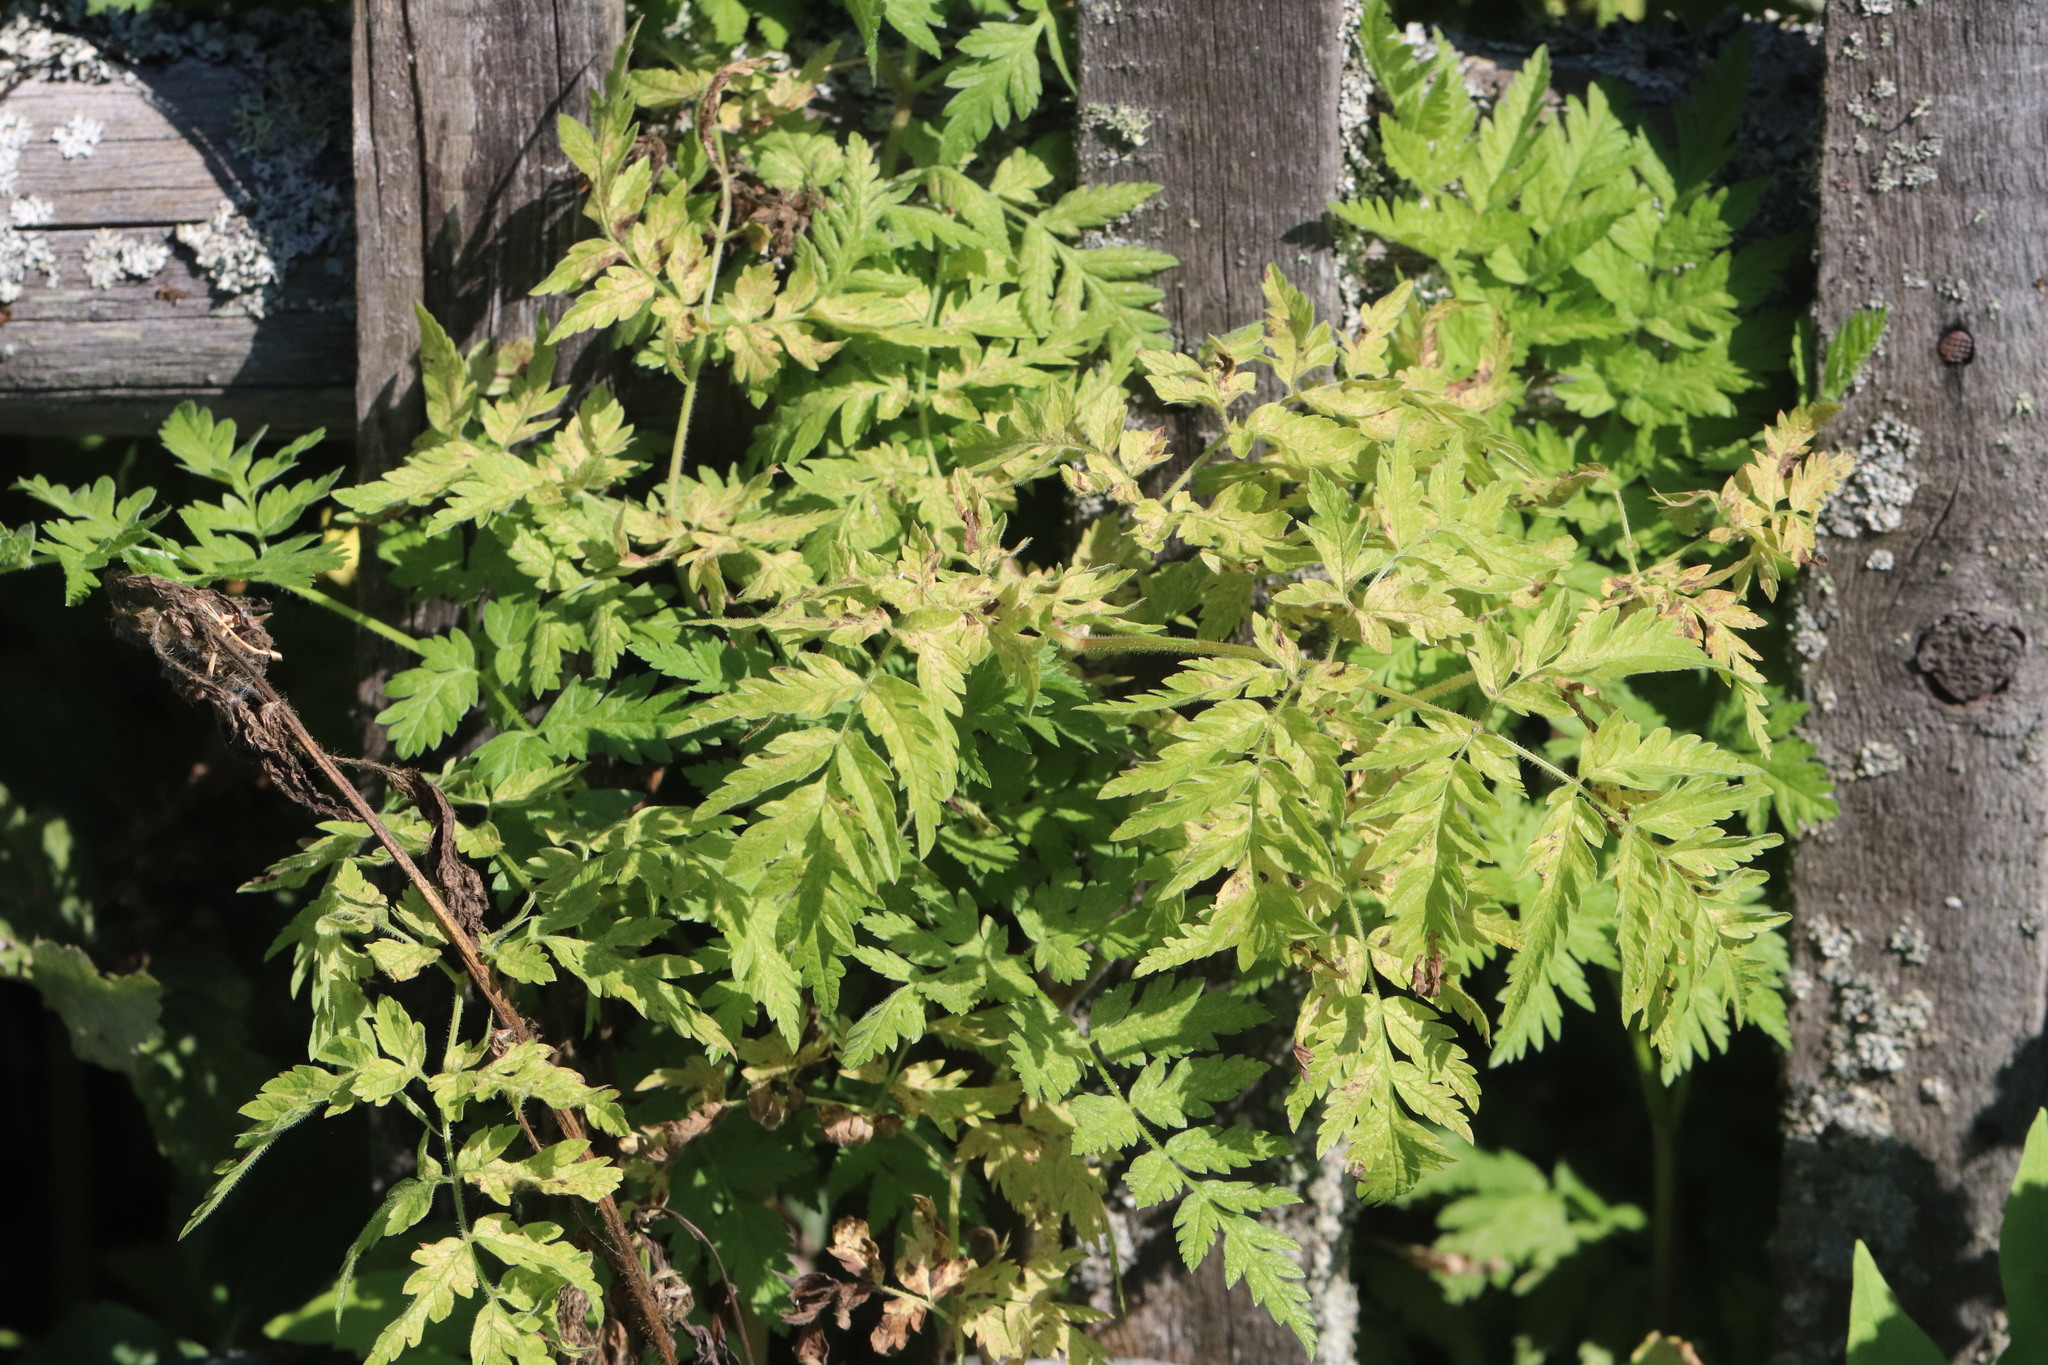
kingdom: Plantae
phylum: Tracheophyta
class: Magnoliopsida
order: Apiales
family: Apiaceae
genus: Anthriscus
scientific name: Anthriscus sylvestris
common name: Cow parsley
